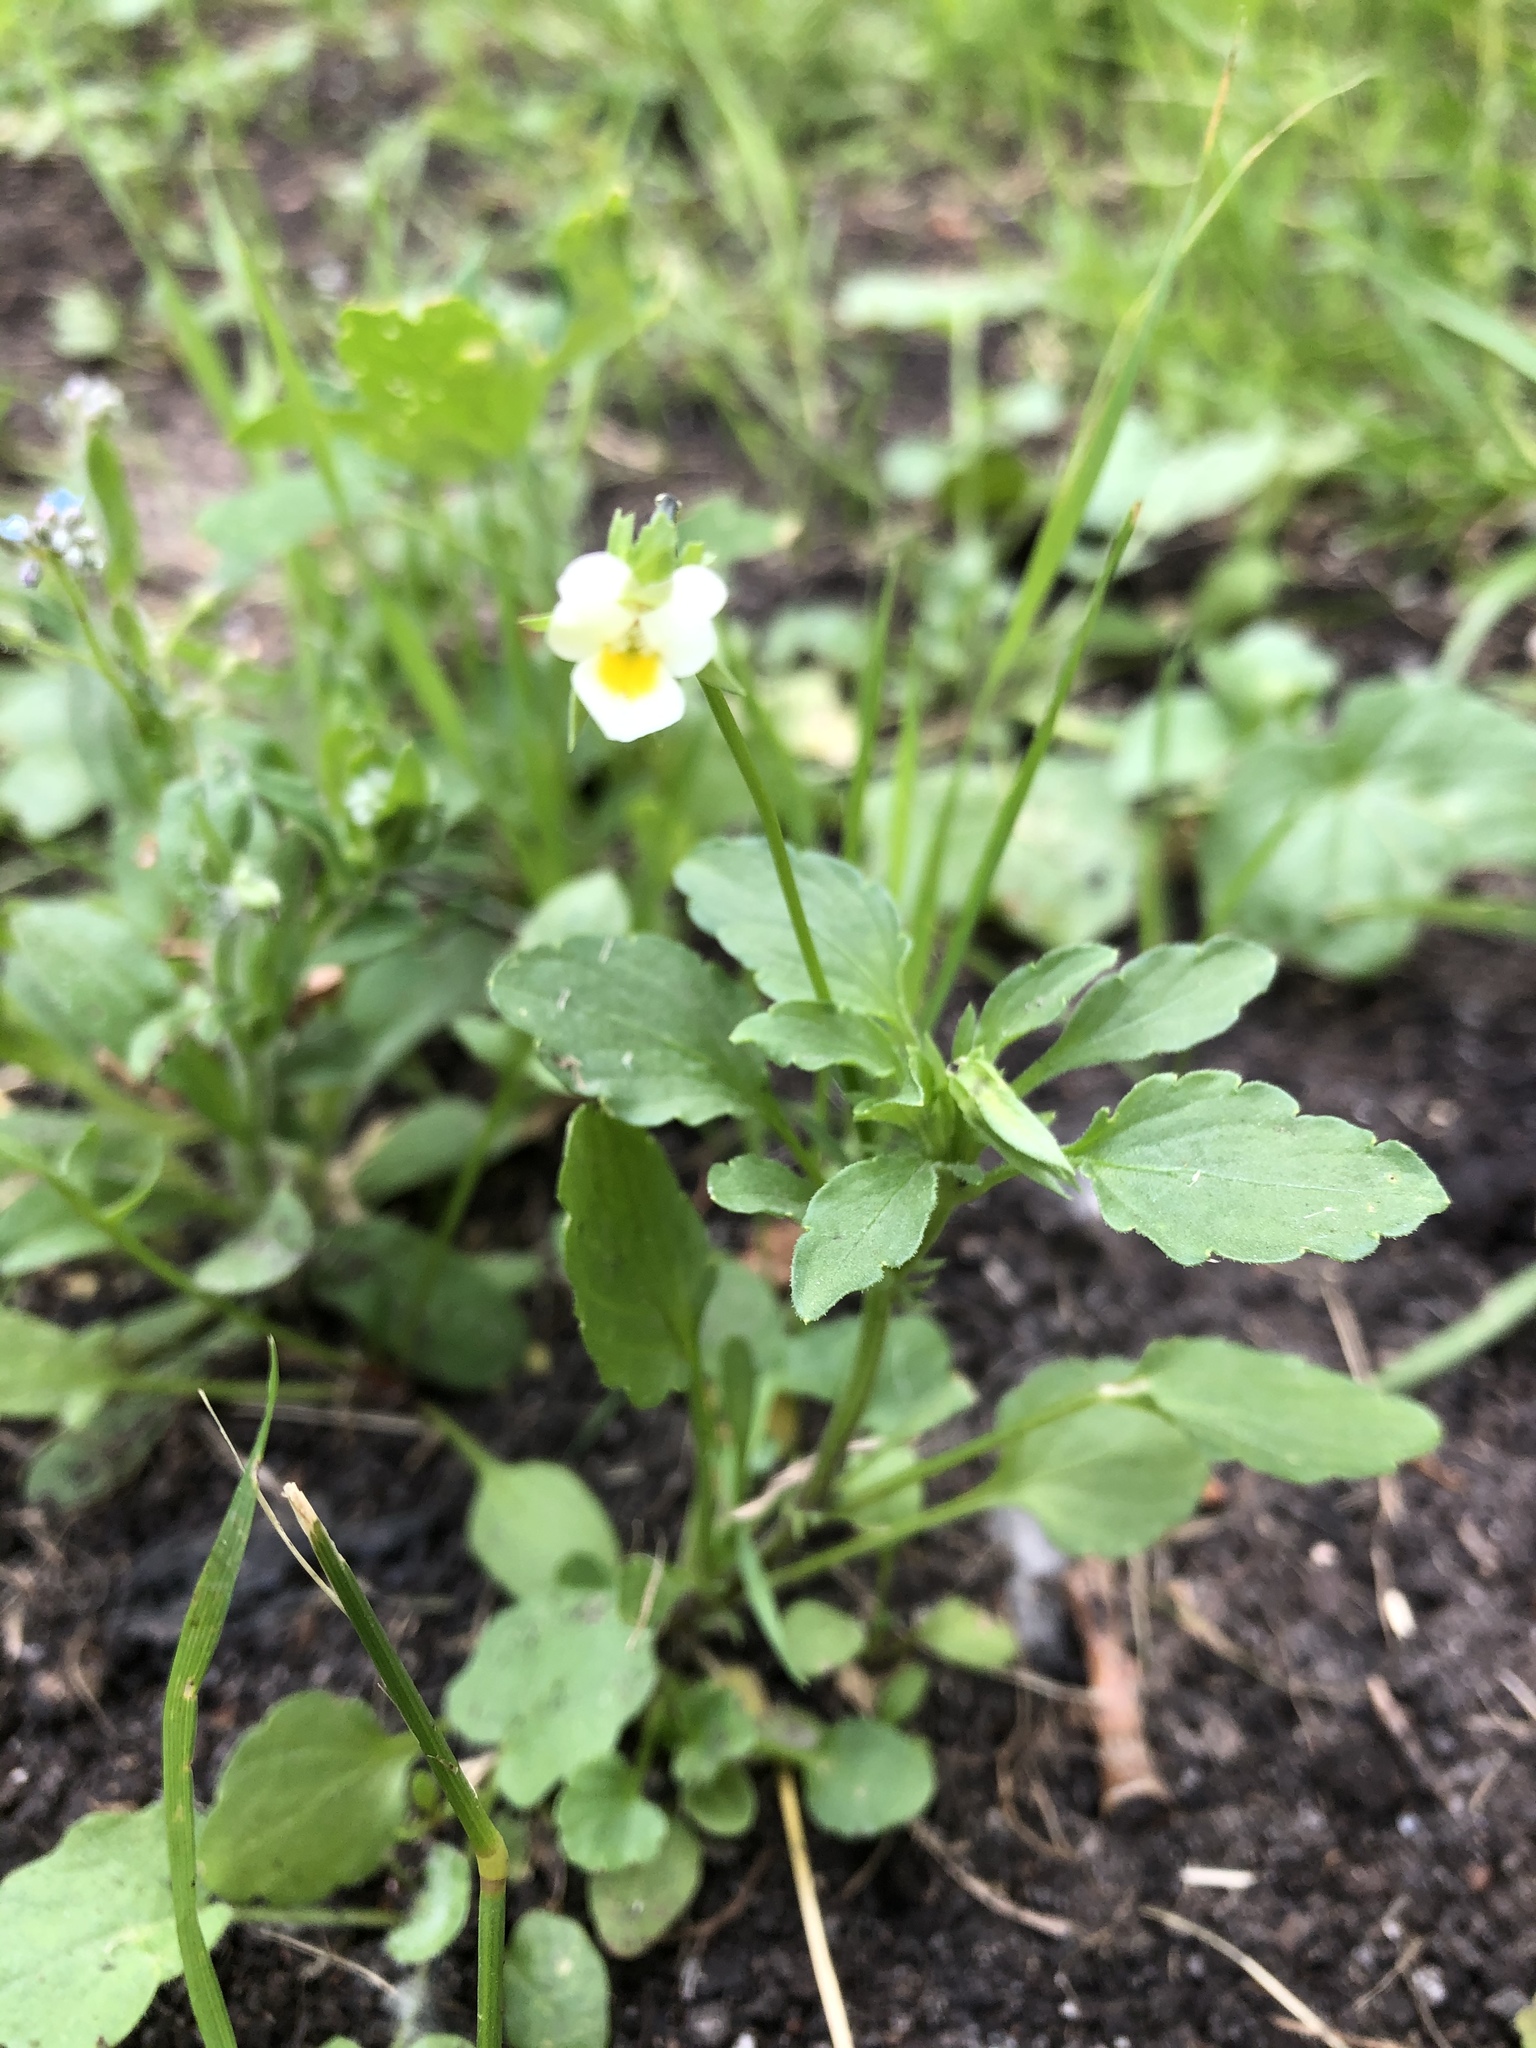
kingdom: Plantae
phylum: Tracheophyta
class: Magnoliopsida
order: Malpighiales
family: Violaceae
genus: Viola
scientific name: Viola arvensis
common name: Field pansy
